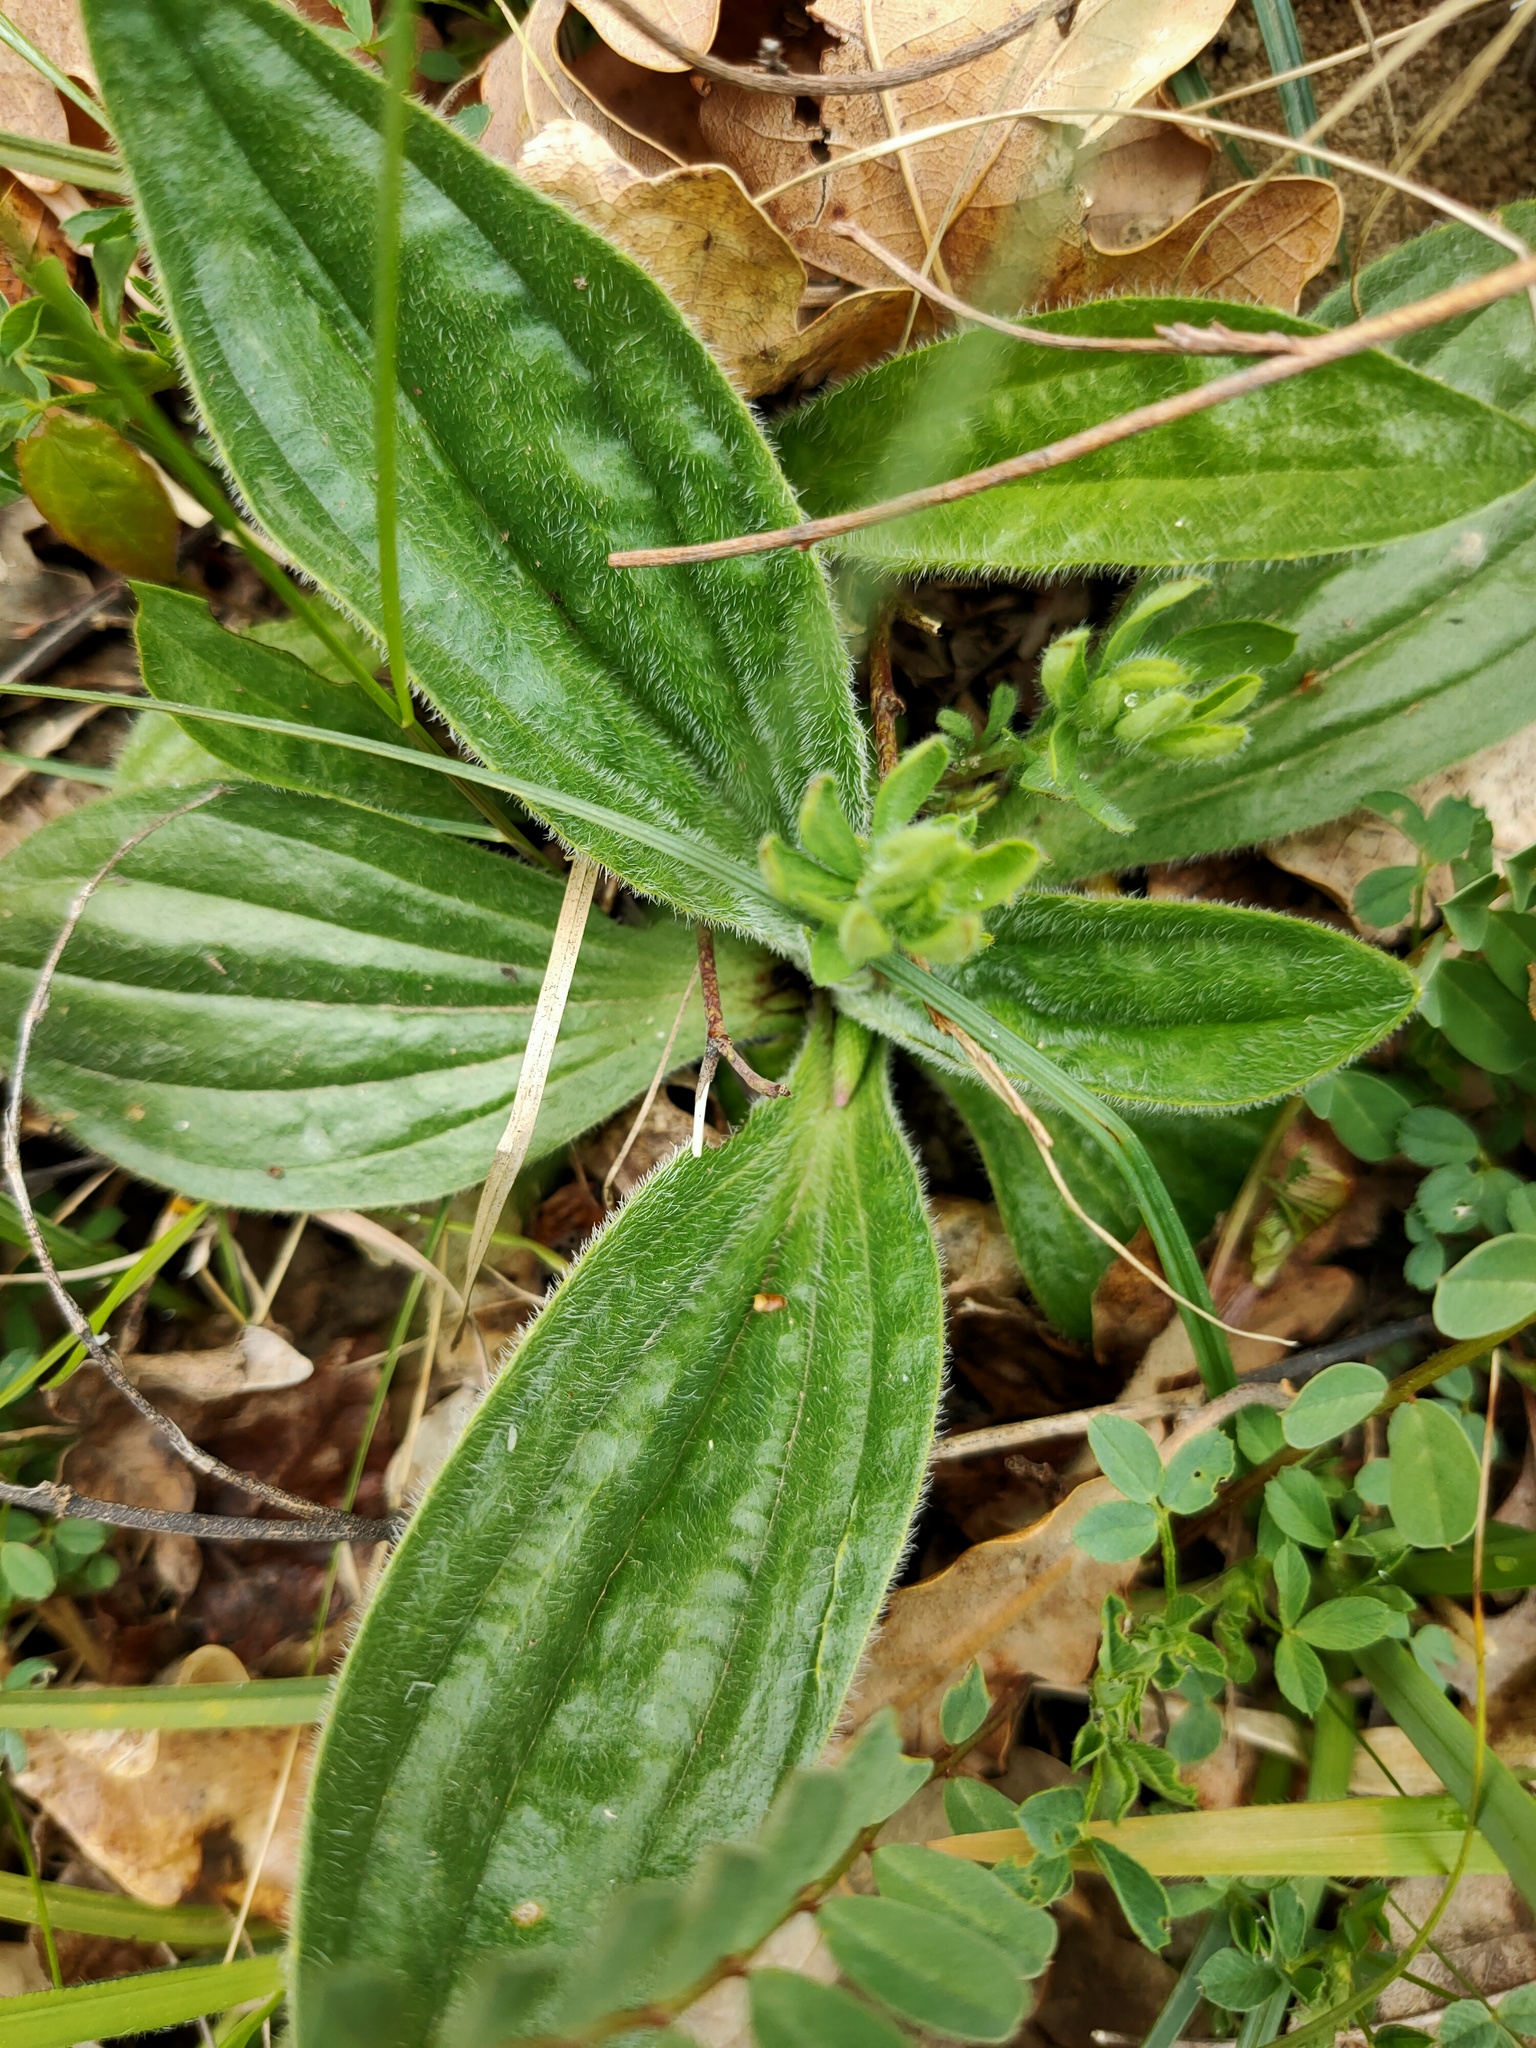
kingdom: Plantae
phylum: Tracheophyta
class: Magnoliopsida
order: Lamiales
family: Plantaginaceae
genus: Plantago
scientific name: Plantago media
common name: Hoary plantain
